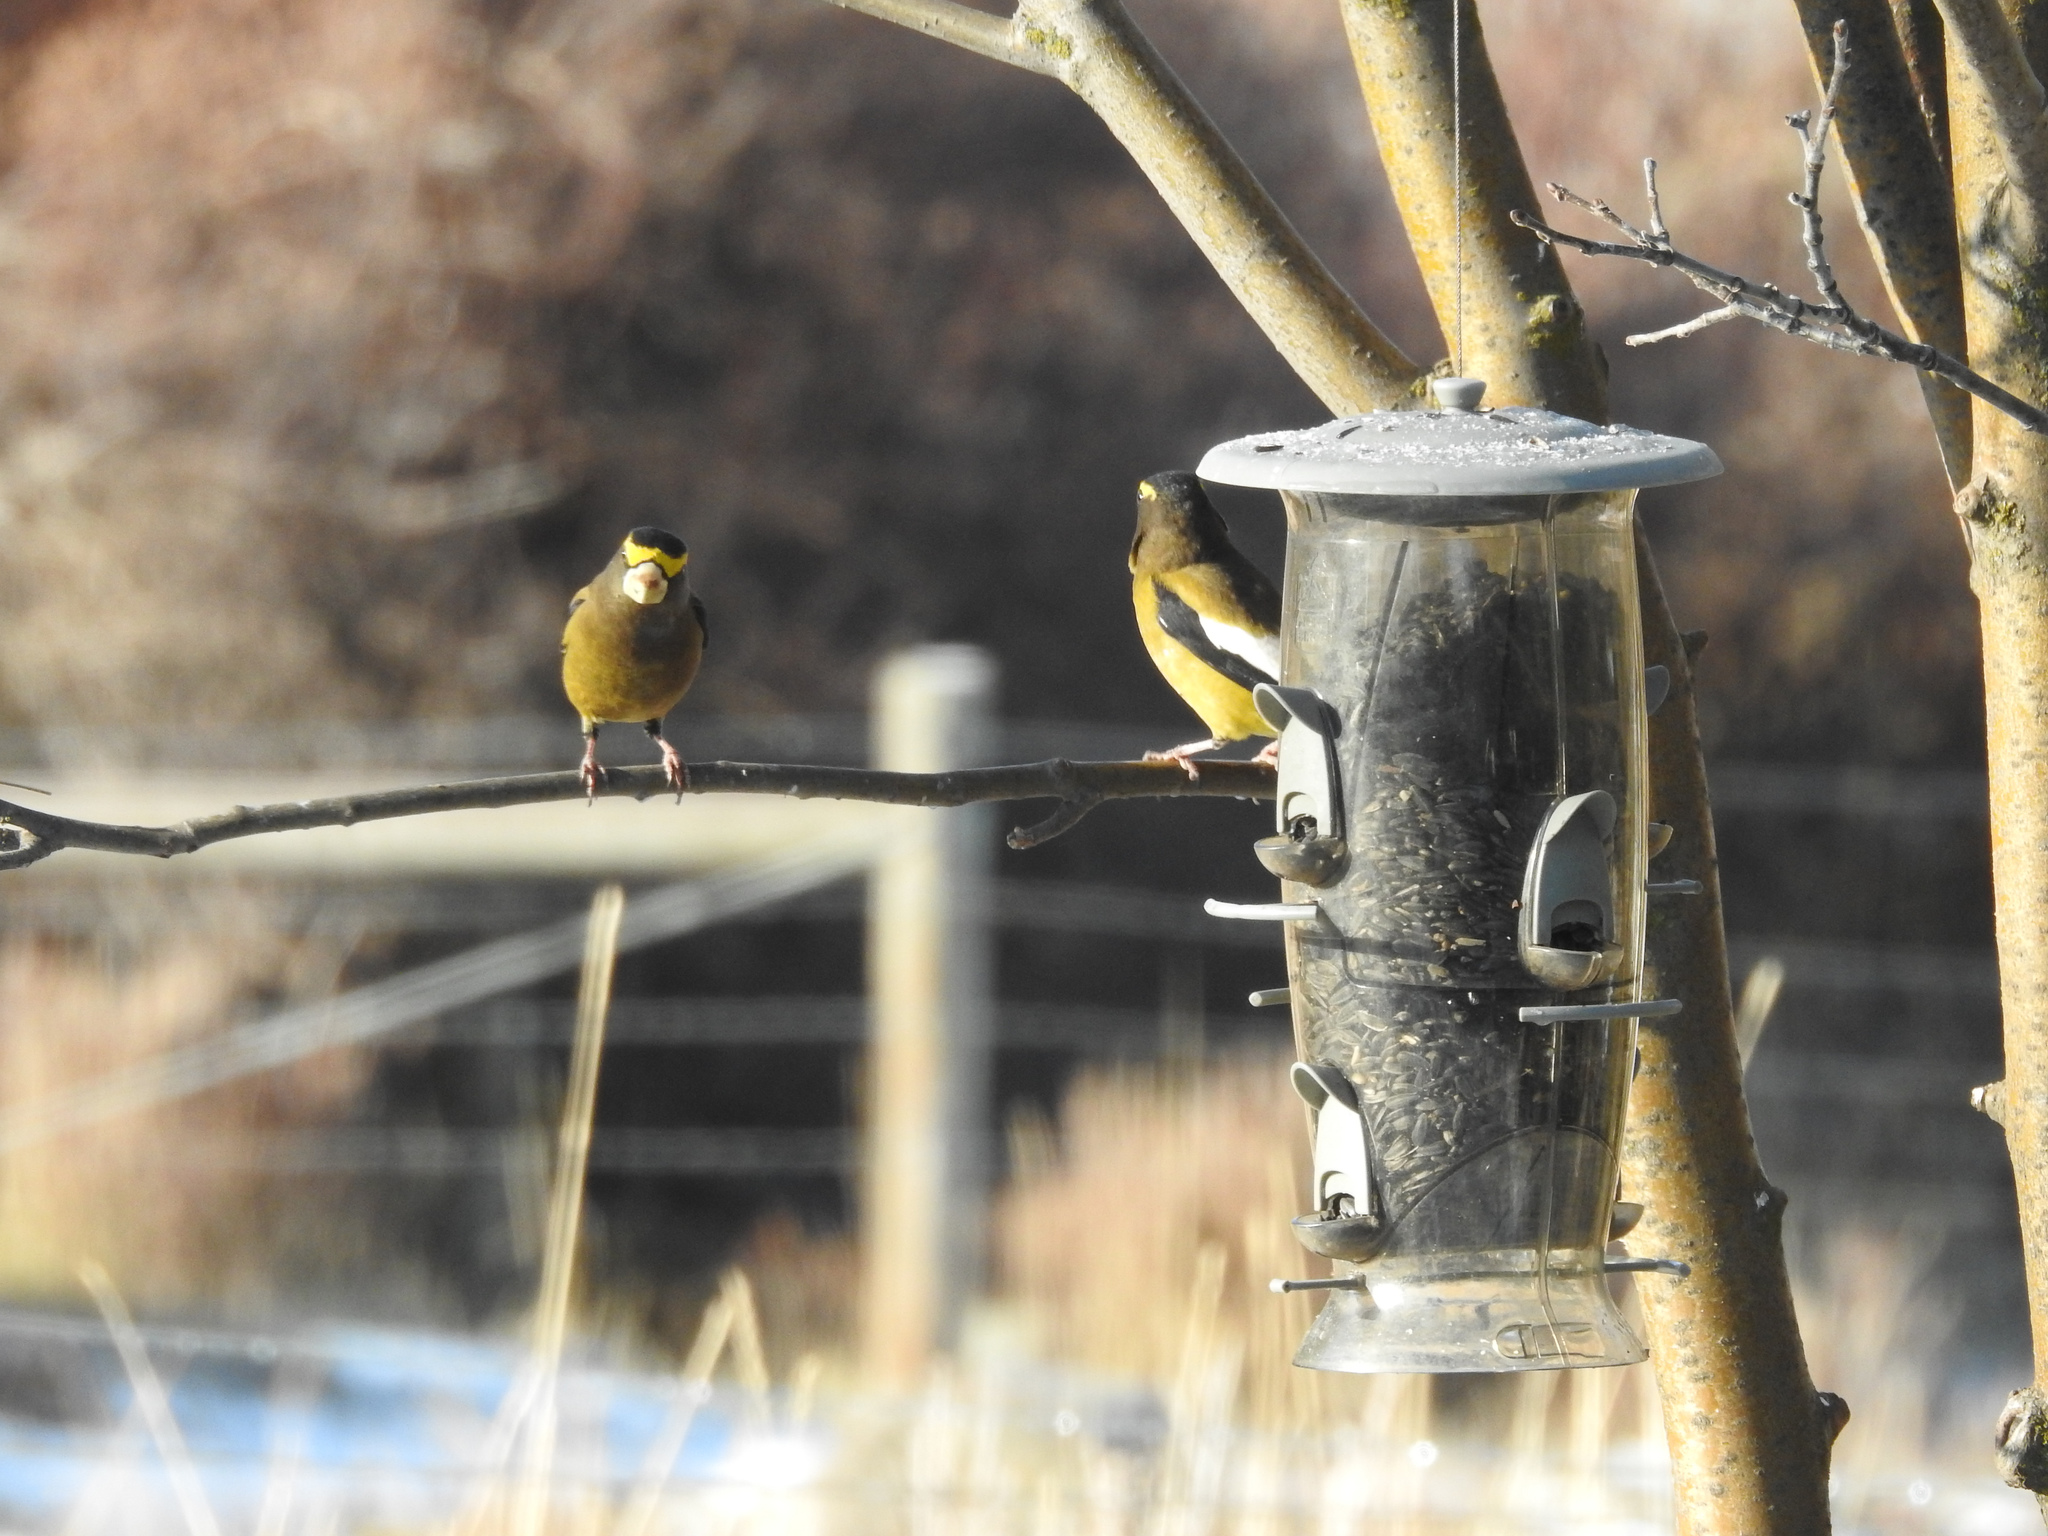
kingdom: Animalia
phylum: Chordata
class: Aves
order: Passeriformes
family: Fringillidae
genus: Hesperiphona
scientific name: Hesperiphona vespertina
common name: Evening grosbeak
